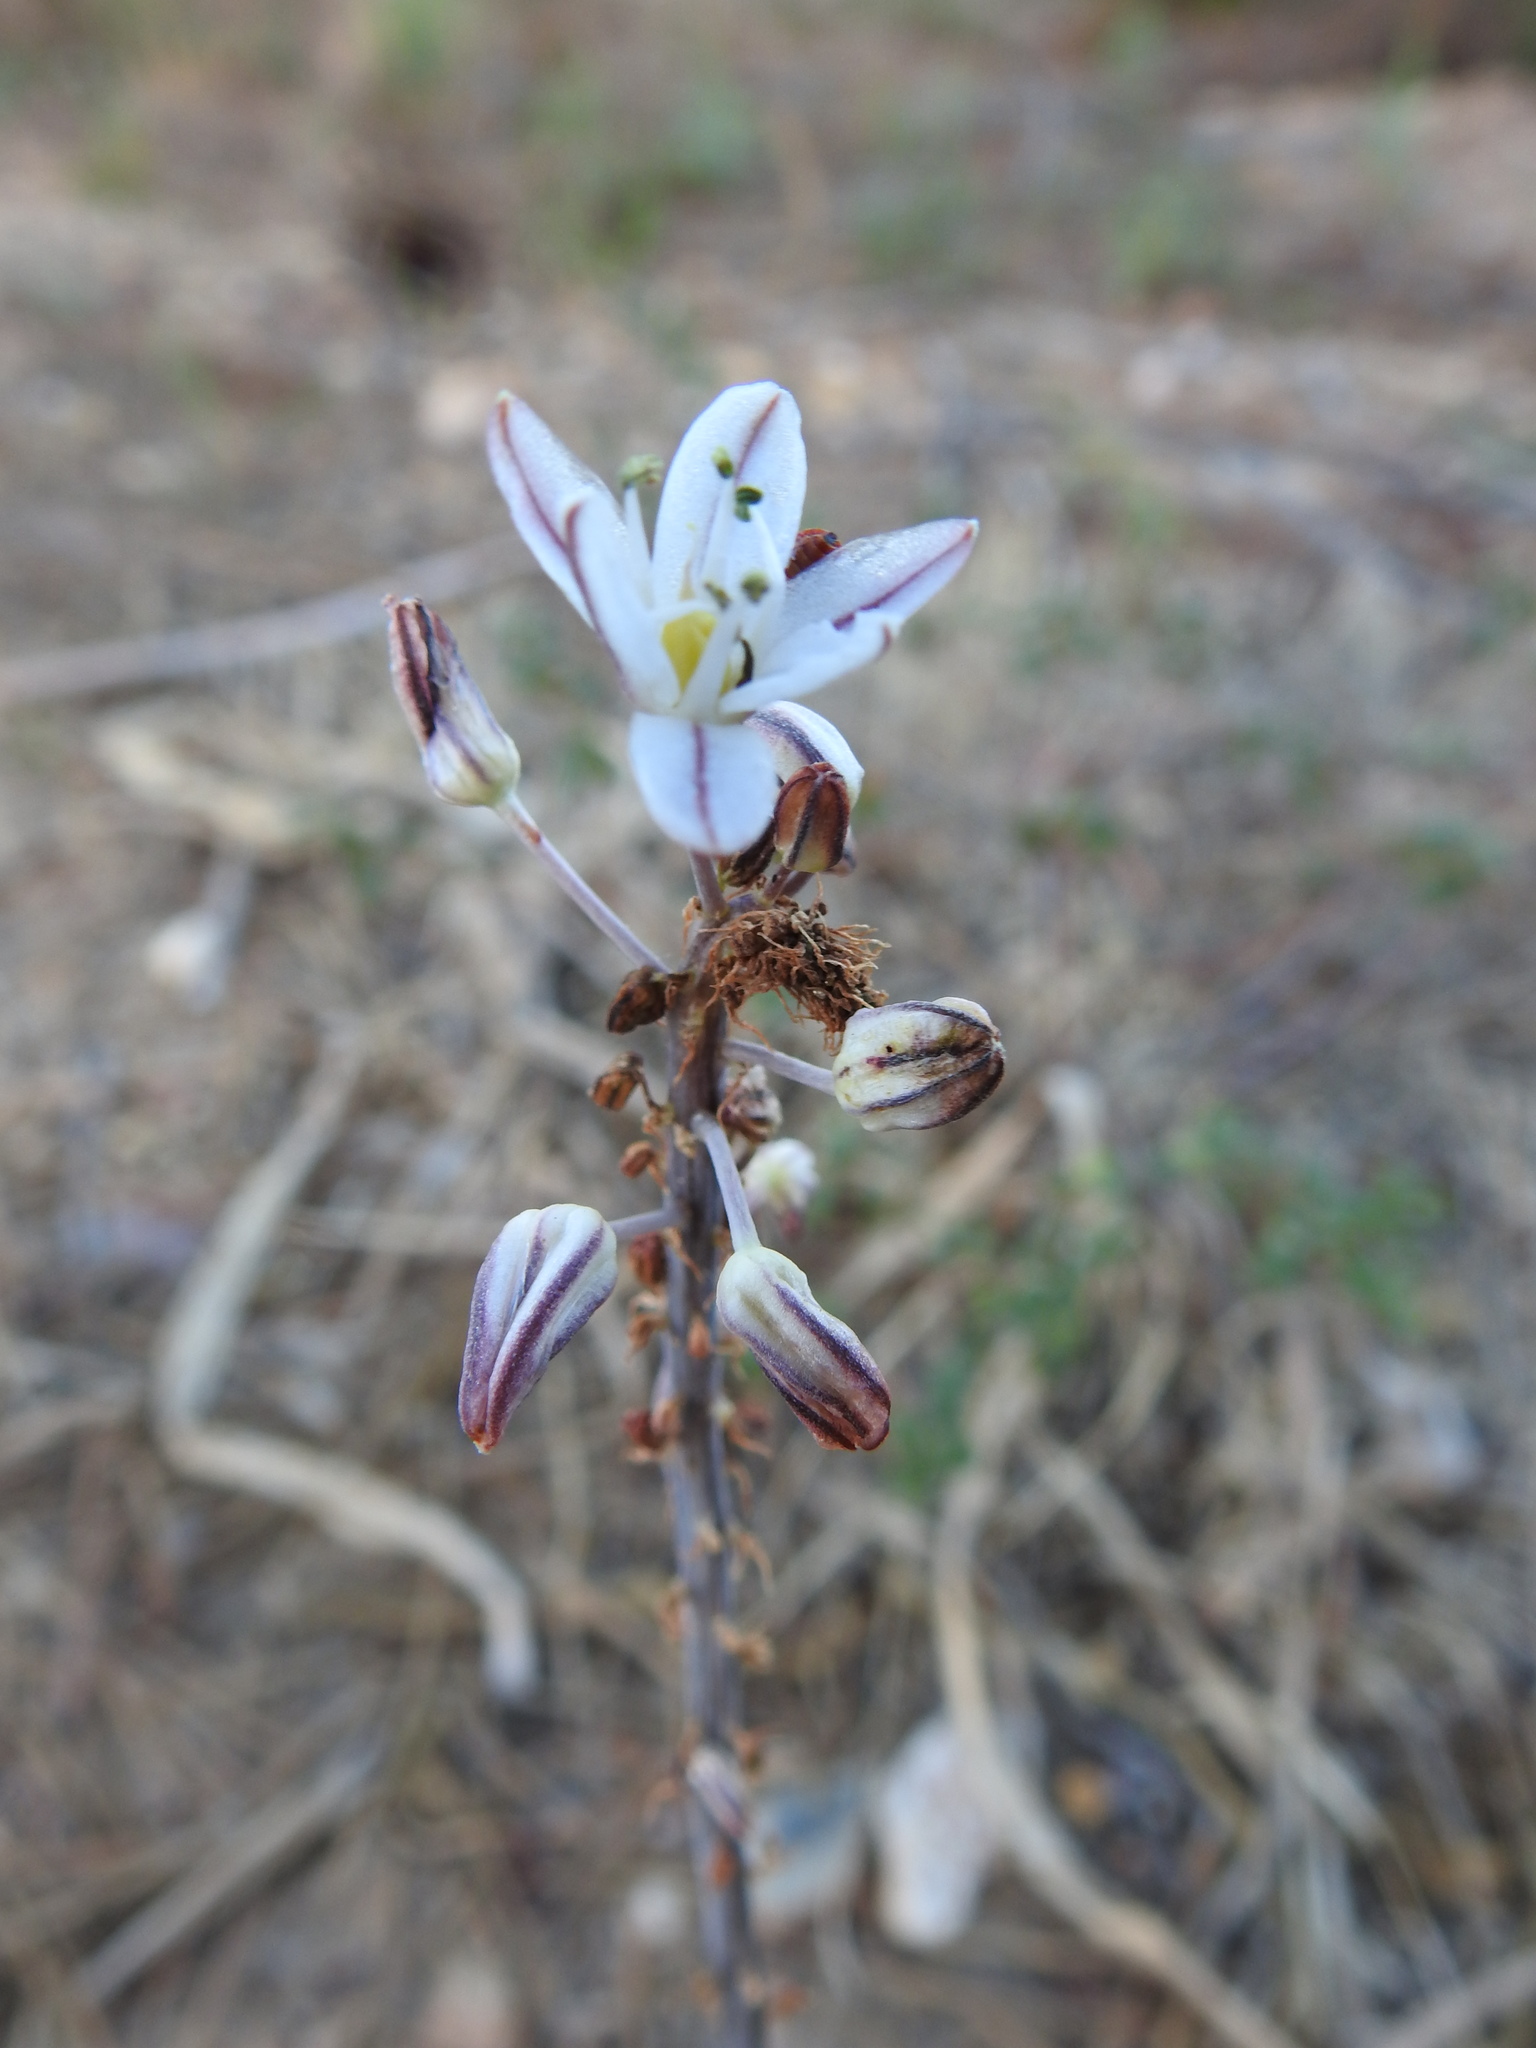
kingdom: Plantae
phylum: Tracheophyta
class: Liliopsida
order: Asparagales
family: Asparagaceae
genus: Drimia
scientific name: Drimia maritima
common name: Maritime squill
